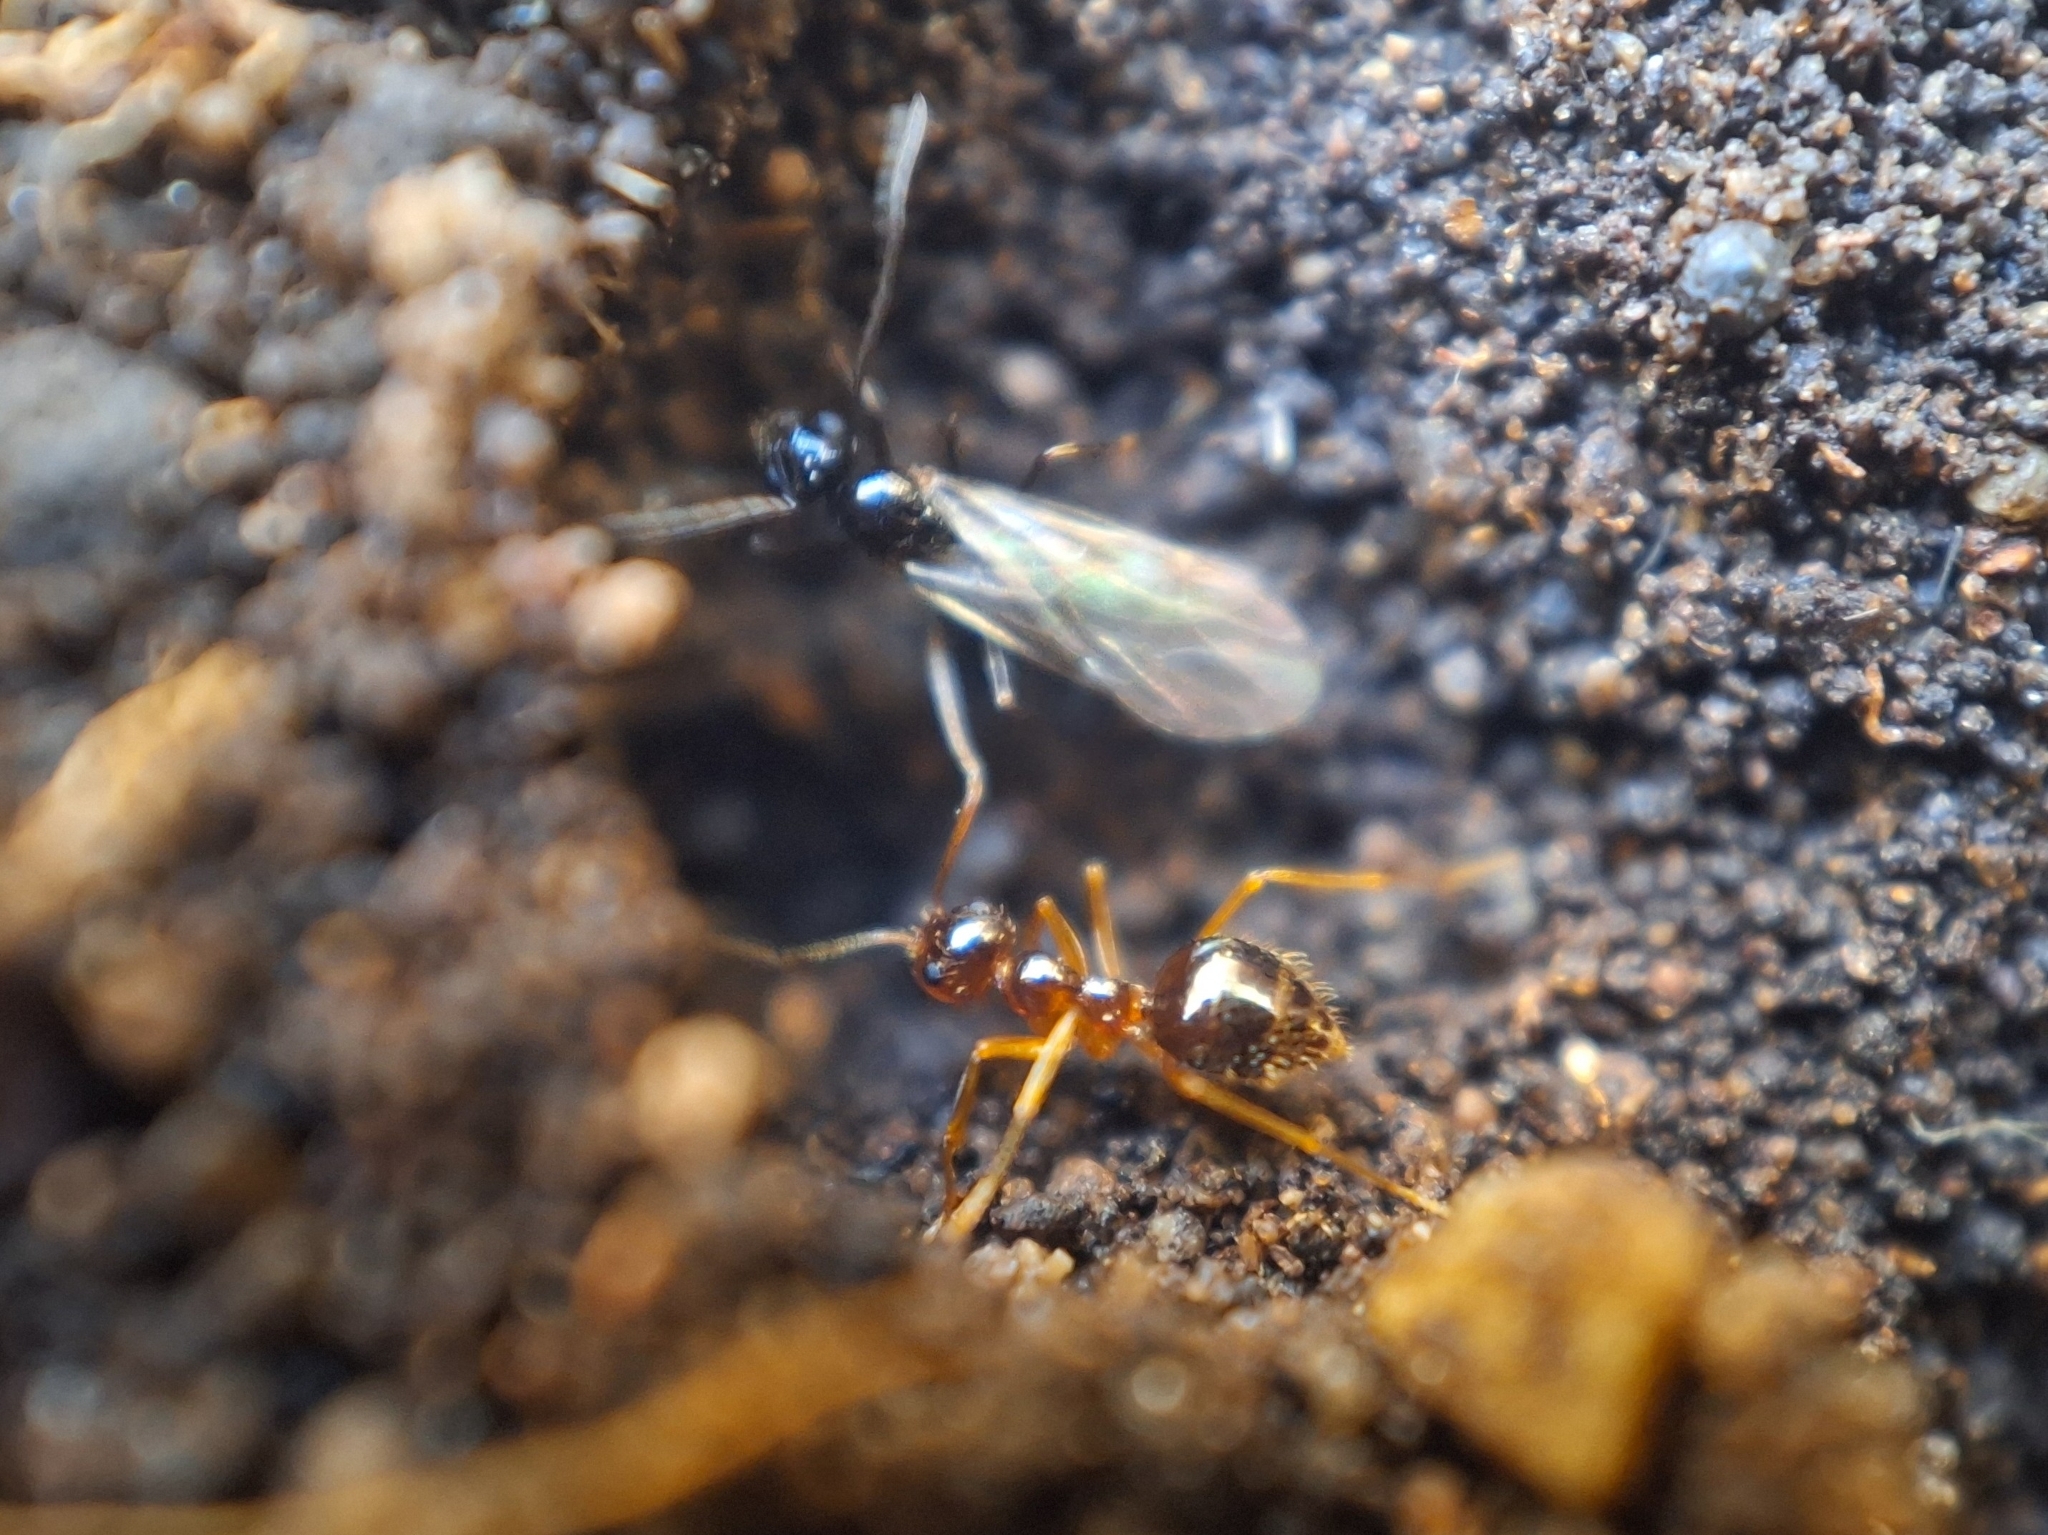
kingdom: Animalia
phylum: Arthropoda
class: Insecta
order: Hymenoptera
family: Formicidae
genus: Prenolepis
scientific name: Prenolepis imparis
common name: Small honey ant
